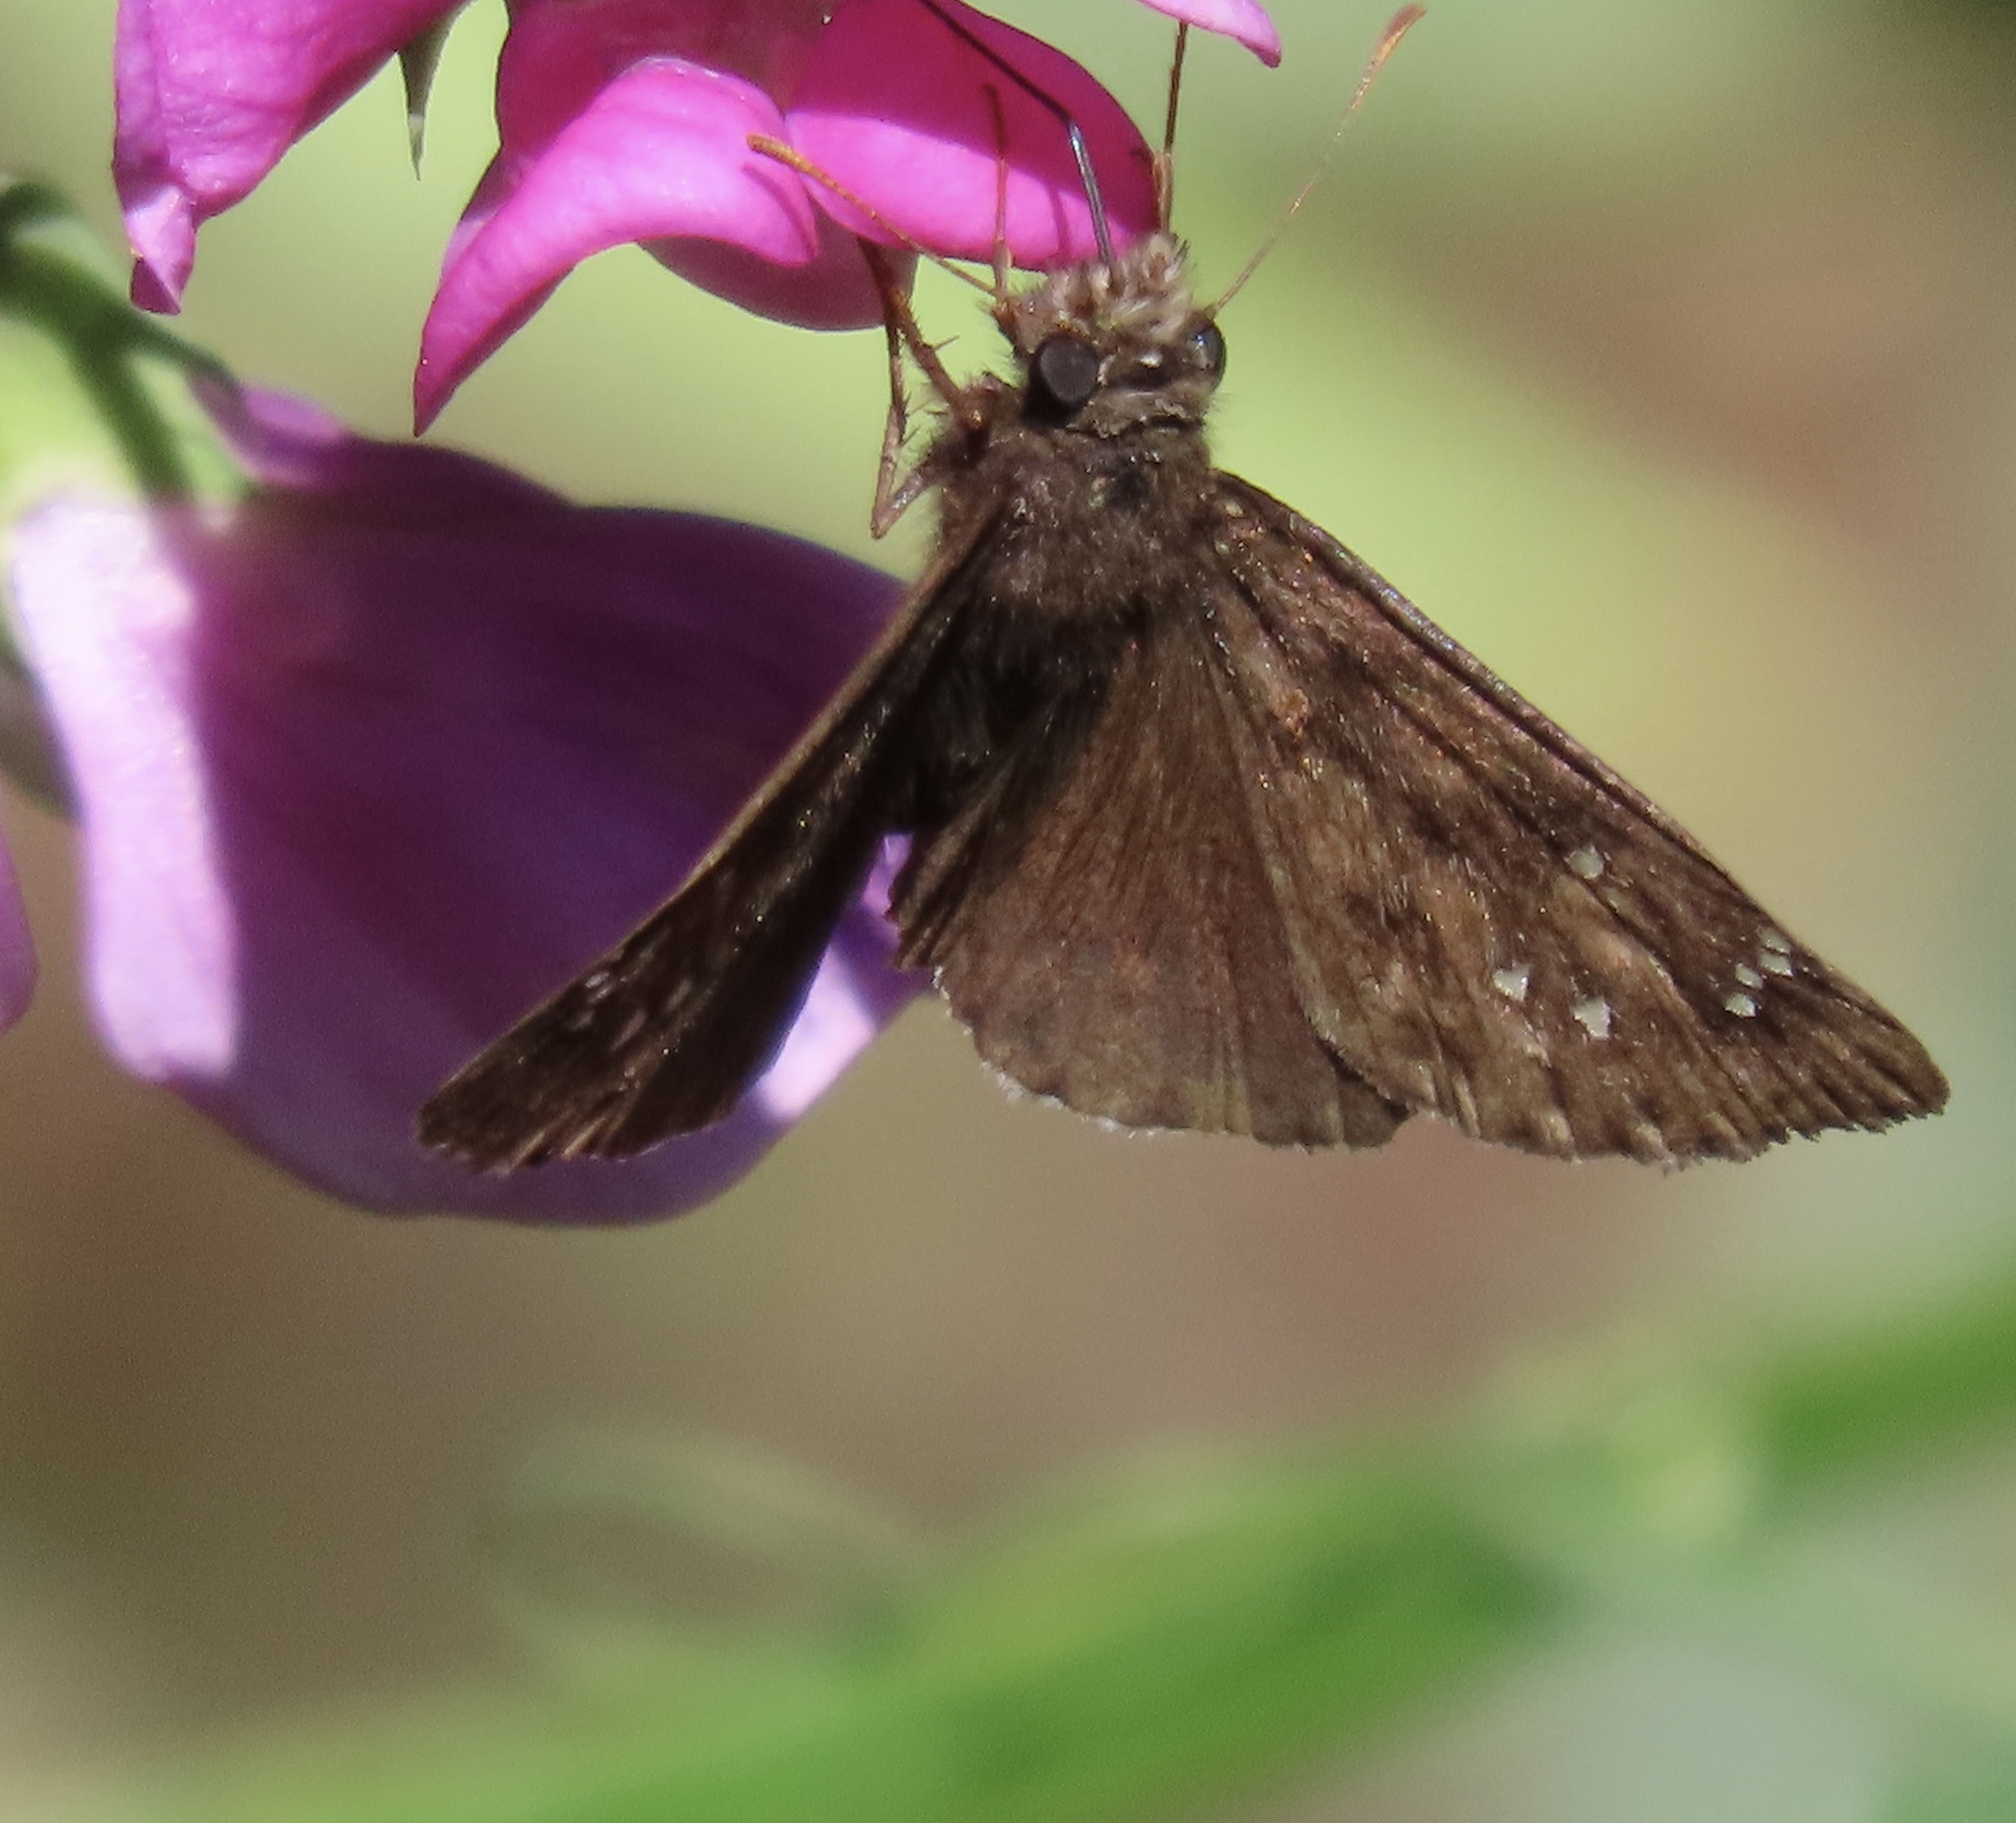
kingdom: Animalia
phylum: Arthropoda
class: Insecta
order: Lepidoptera
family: Hesperiidae
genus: Erynnis
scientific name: Erynnis tristis
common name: Mournful duskywing
